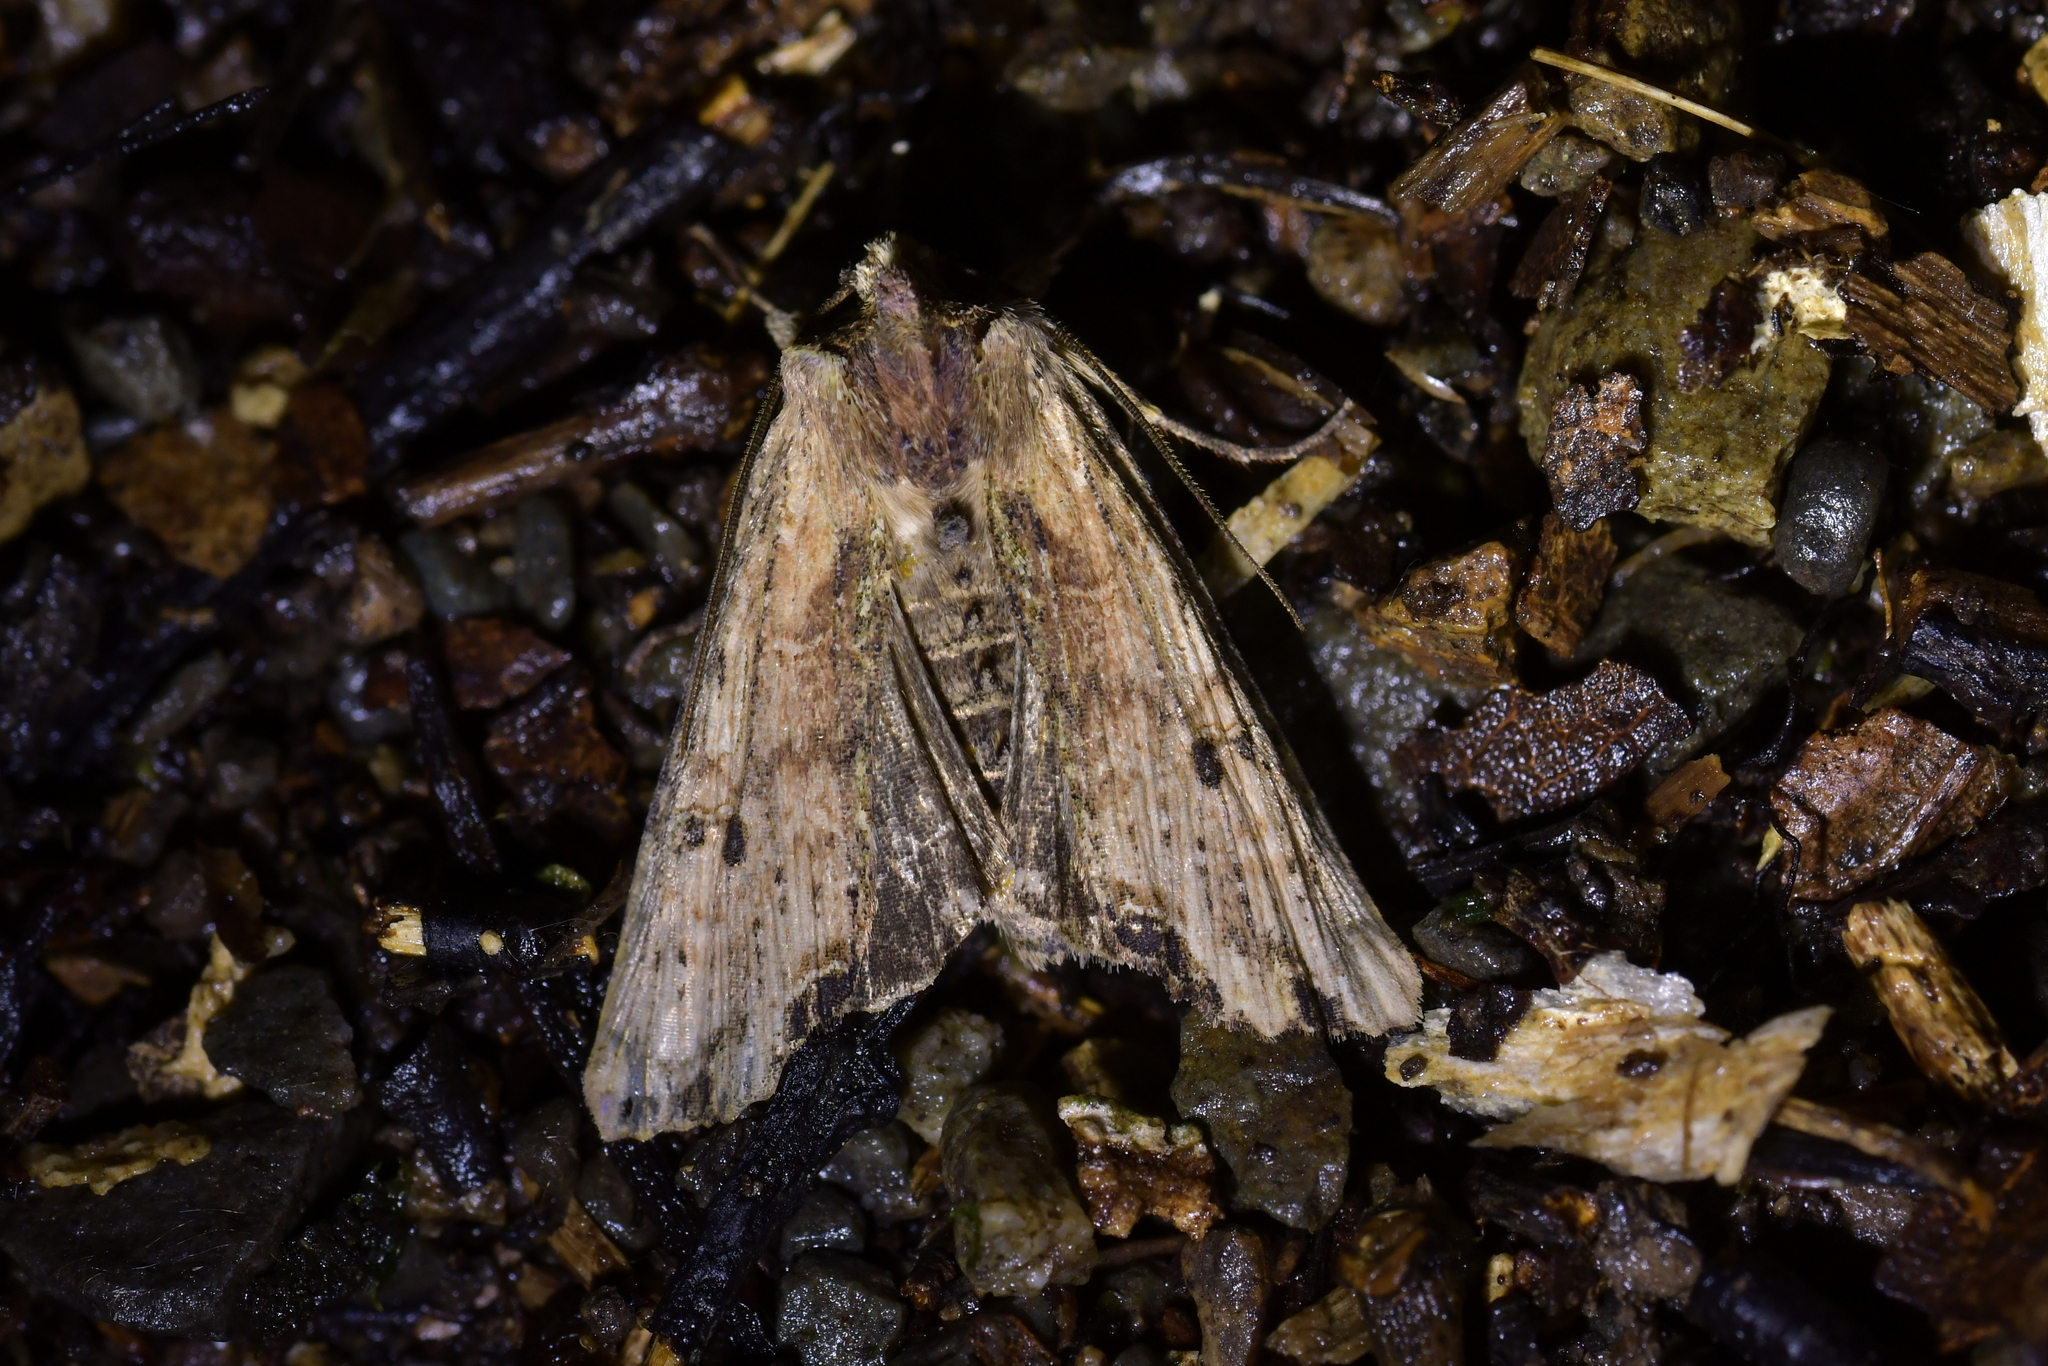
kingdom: Animalia
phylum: Arthropoda
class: Insecta
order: Lepidoptera
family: Noctuidae
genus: Meterana
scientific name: Meterana coeleno
